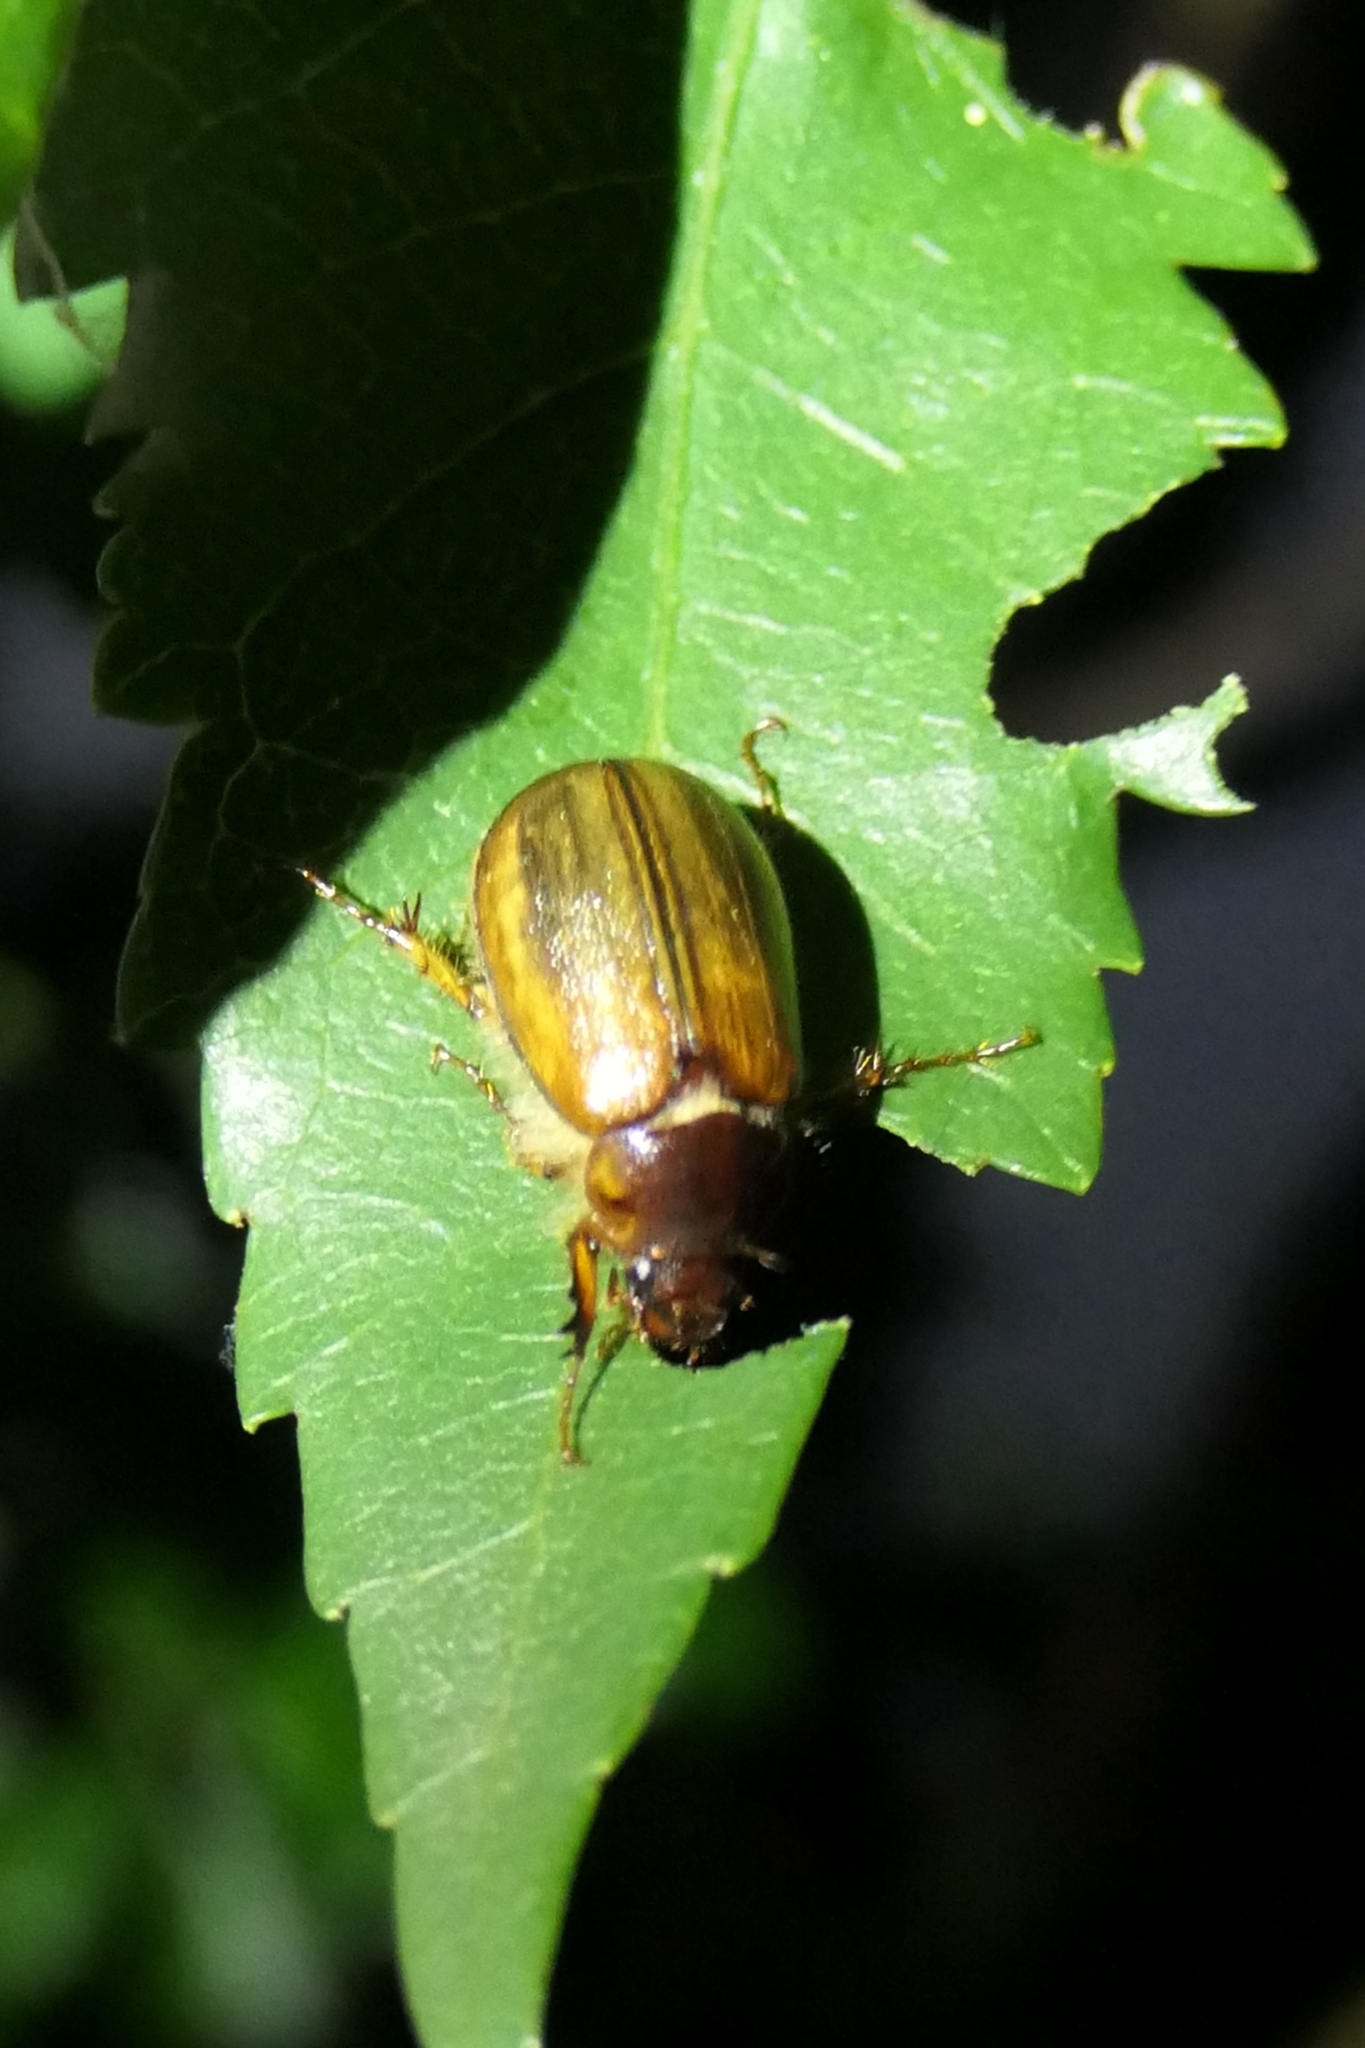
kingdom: Animalia
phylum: Arthropoda
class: Insecta
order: Coleoptera
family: Scarabaeidae
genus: Costelytra
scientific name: Costelytra zealandica
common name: New zealand grass grub
